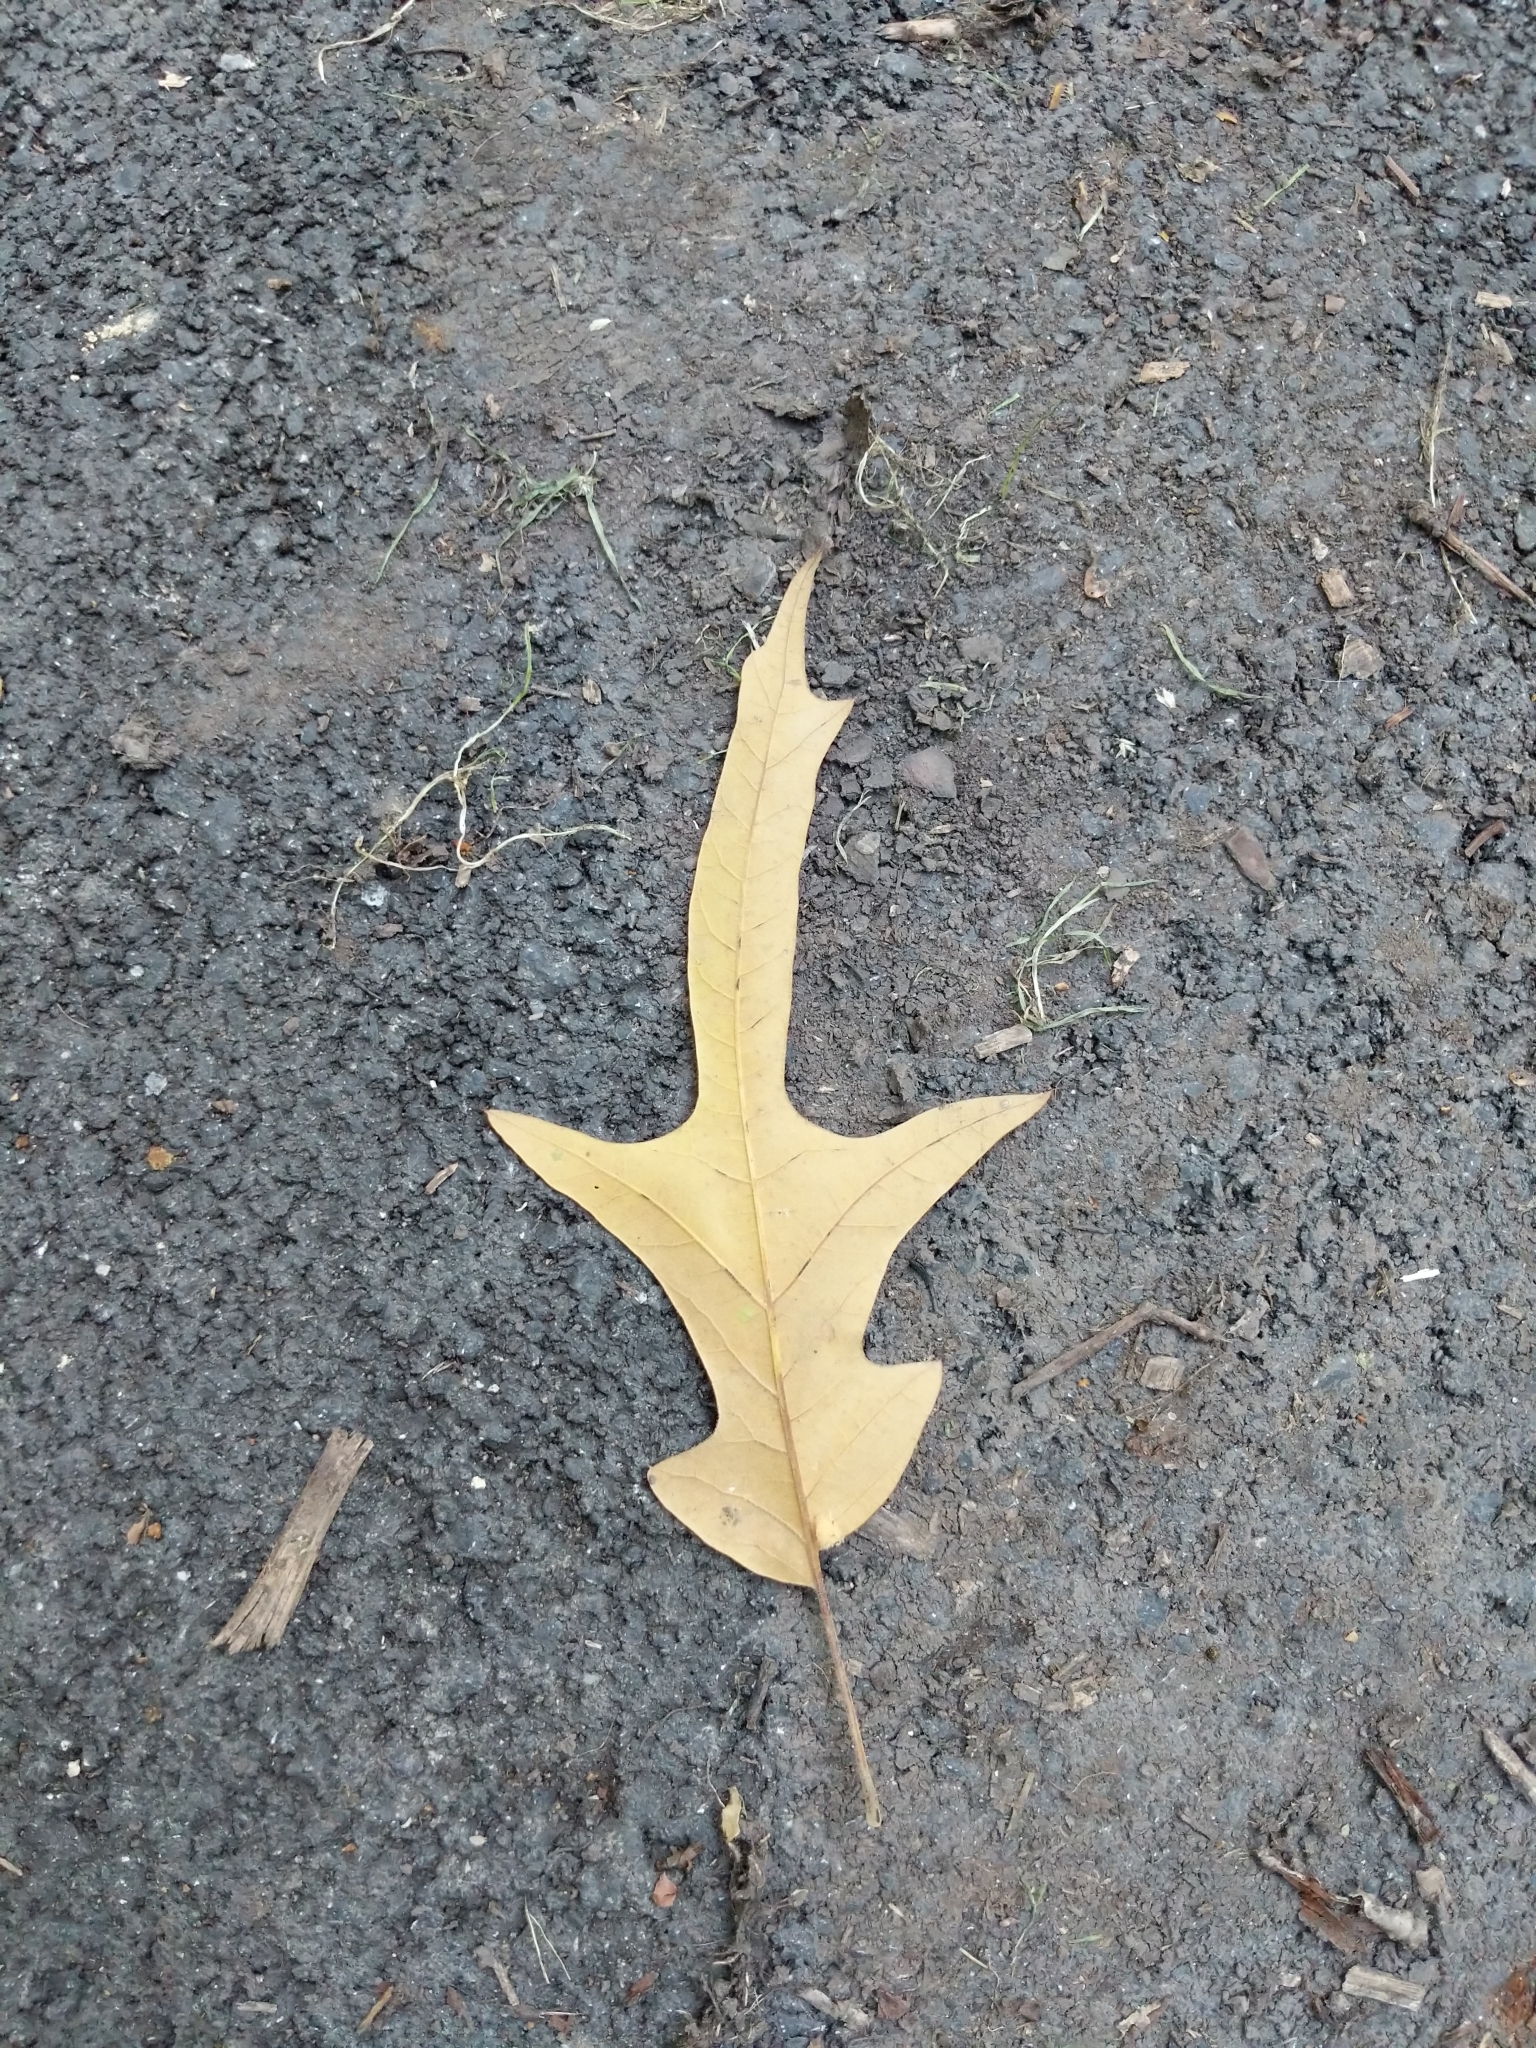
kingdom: Plantae
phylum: Tracheophyta
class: Magnoliopsida
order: Fagales
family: Fagaceae
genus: Quercus
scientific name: Quercus falcata
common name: Southern red oak
